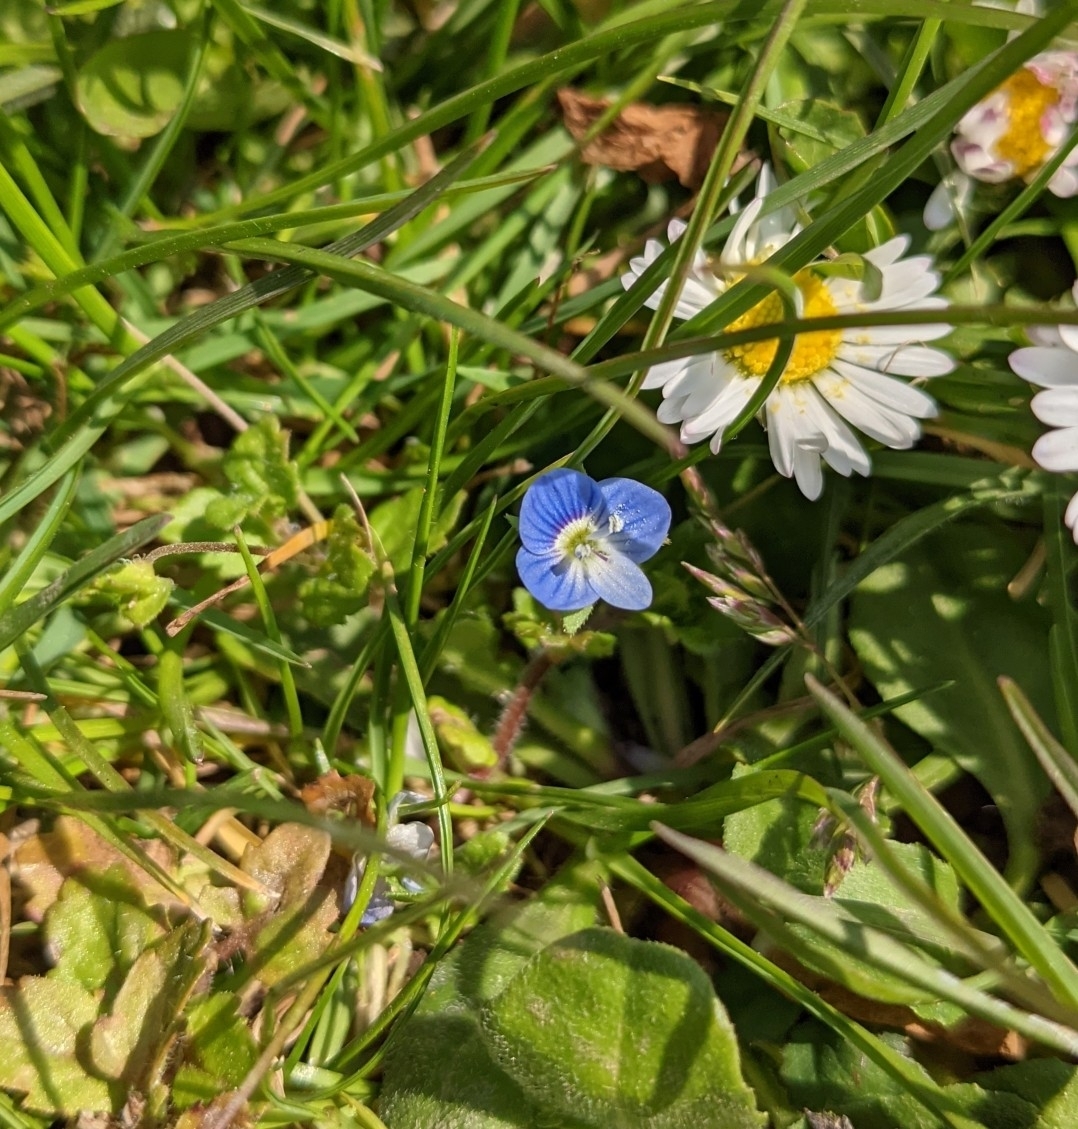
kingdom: Plantae
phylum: Tracheophyta
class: Magnoliopsida
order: Lamiales
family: Plantaginaceae
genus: Veronica
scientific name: Veronica persica
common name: Common field-speedwell
